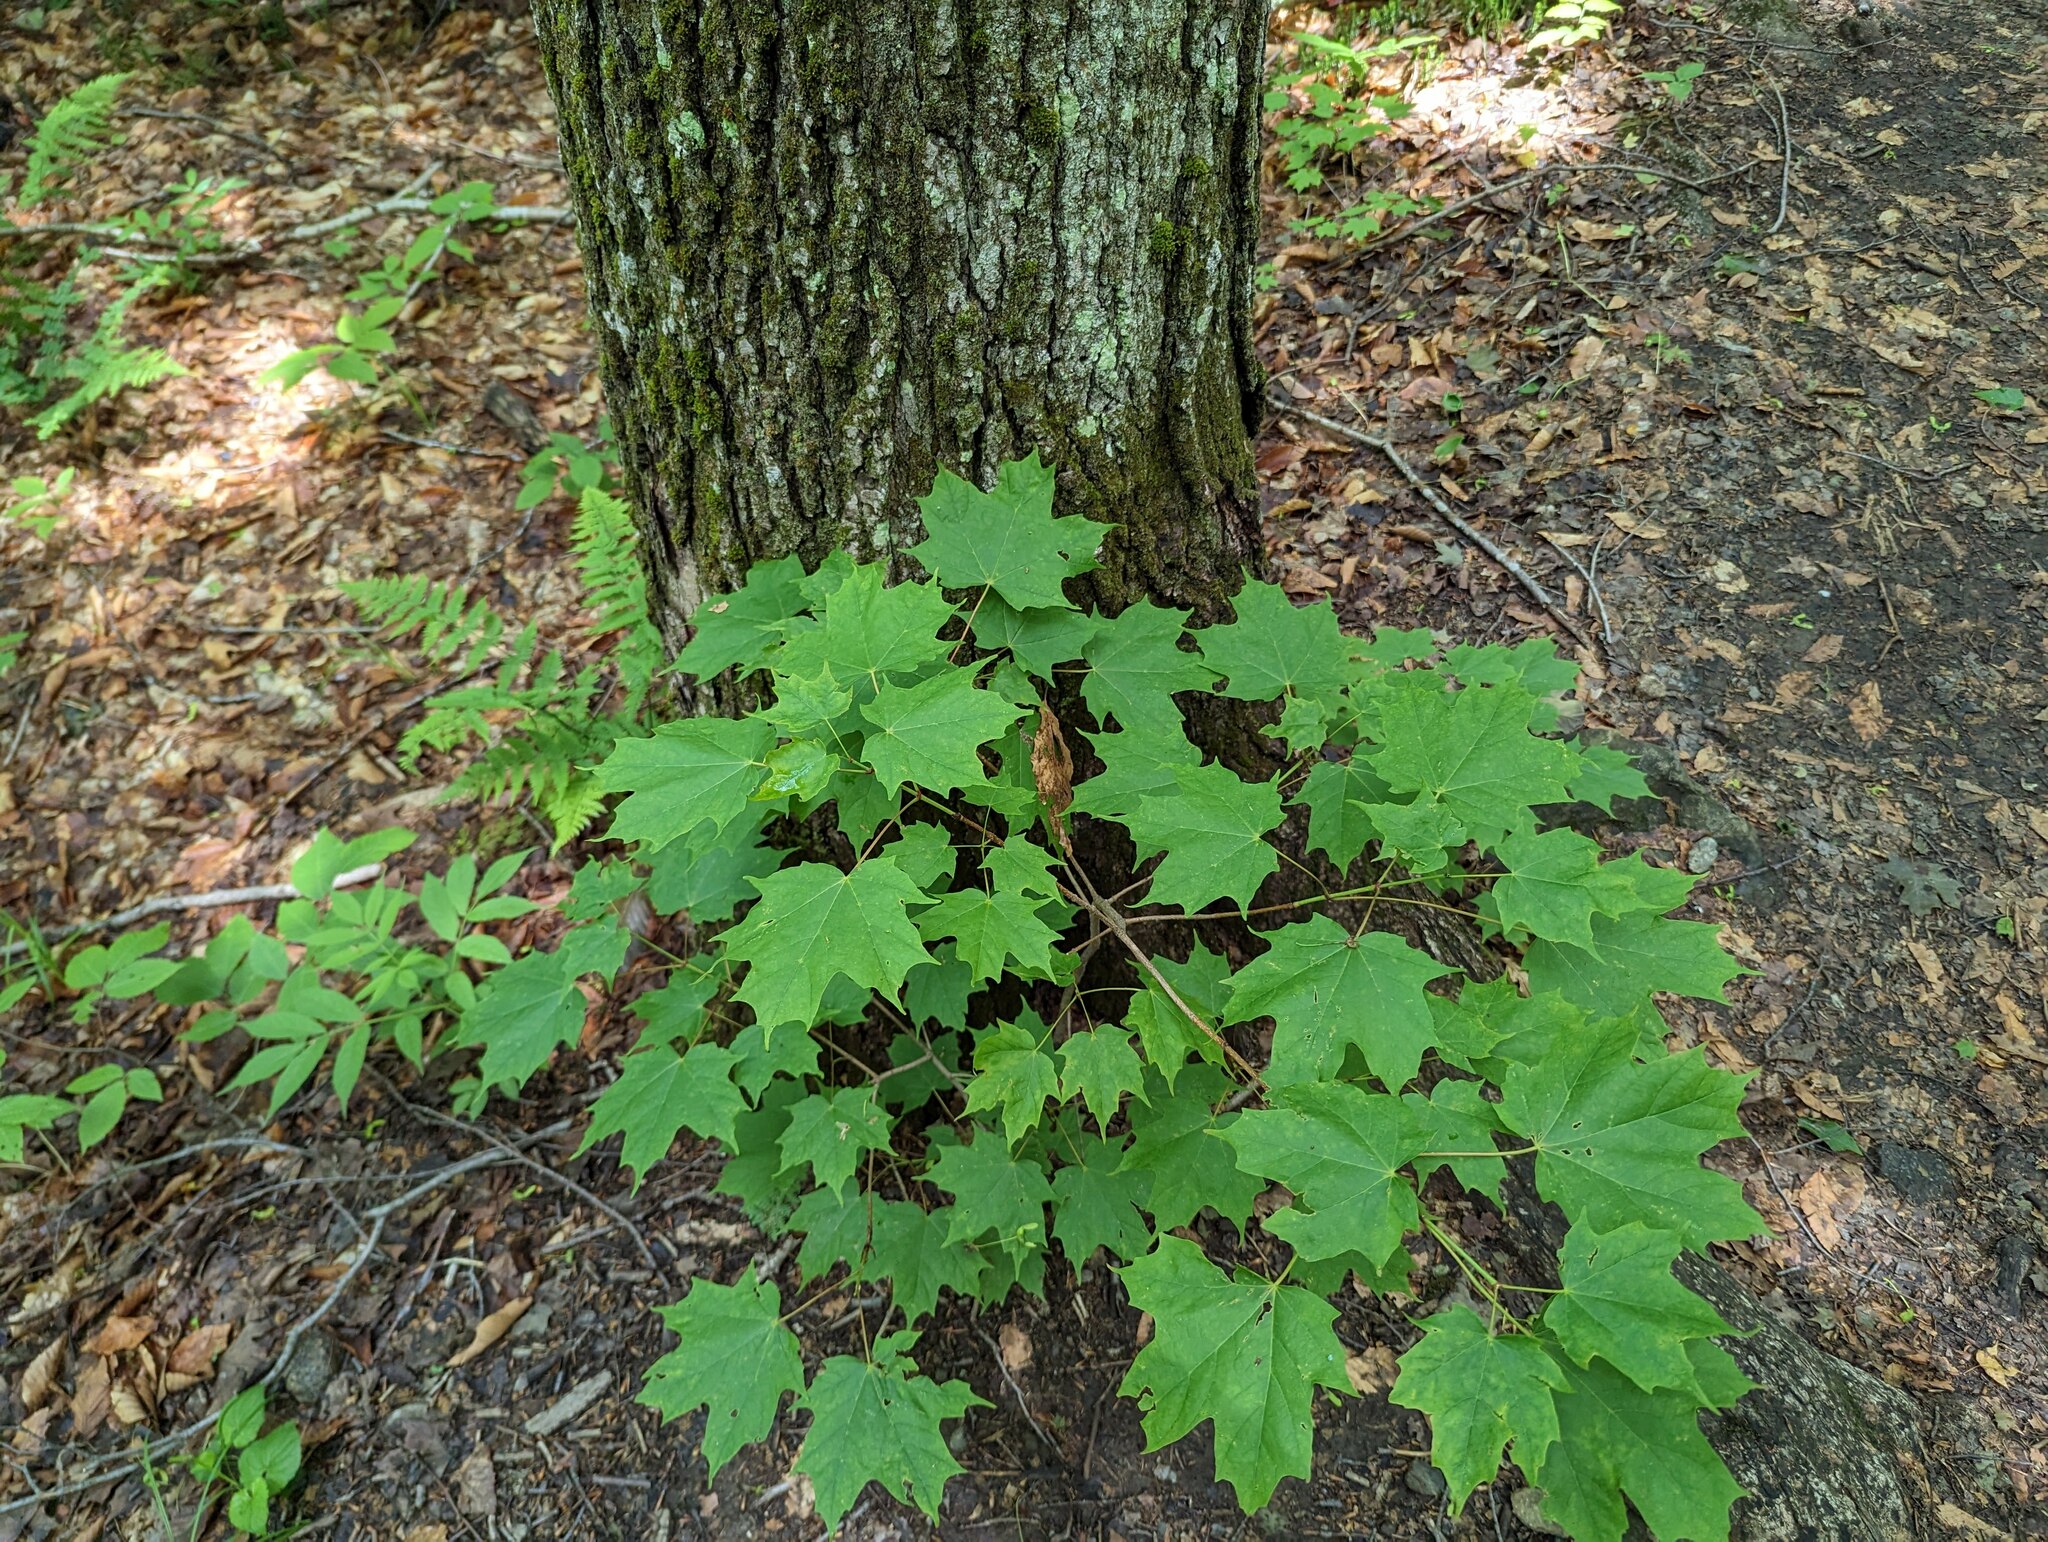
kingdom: Plantae
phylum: Tracheophyta
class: Magnoliopsida
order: Sapindales
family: Sapindaceae
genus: Acer
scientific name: Acer saccharum
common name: Sugar maple
